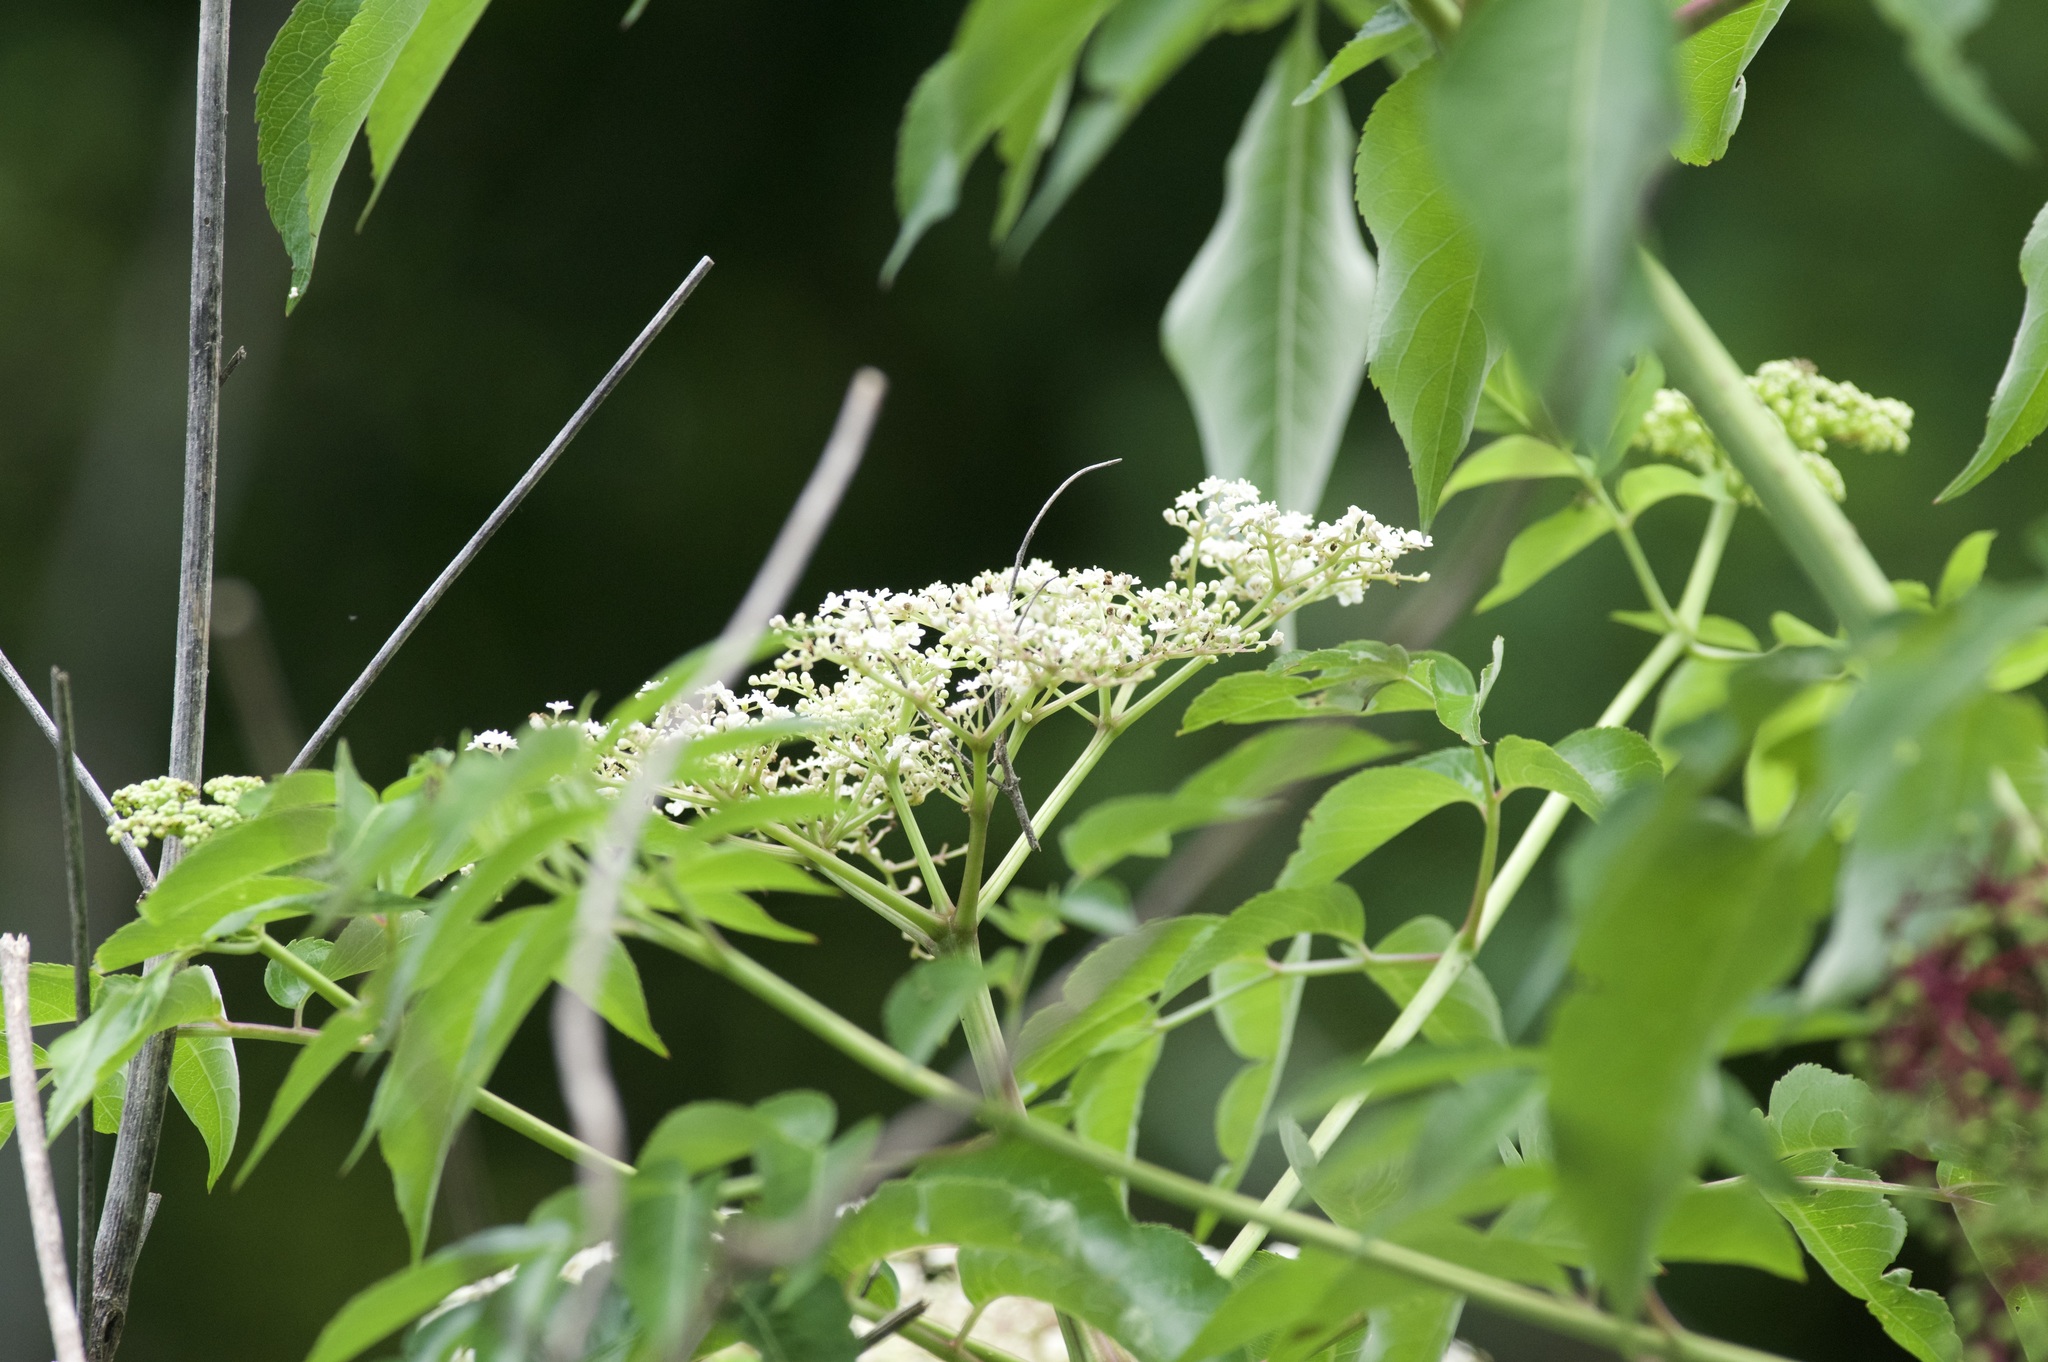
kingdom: Plantae
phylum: Tracheophyta
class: Magnoliopsida
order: Dipsacales
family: Viburnaceae
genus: Sambucus
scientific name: Sambucus canadensis
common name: American elder
